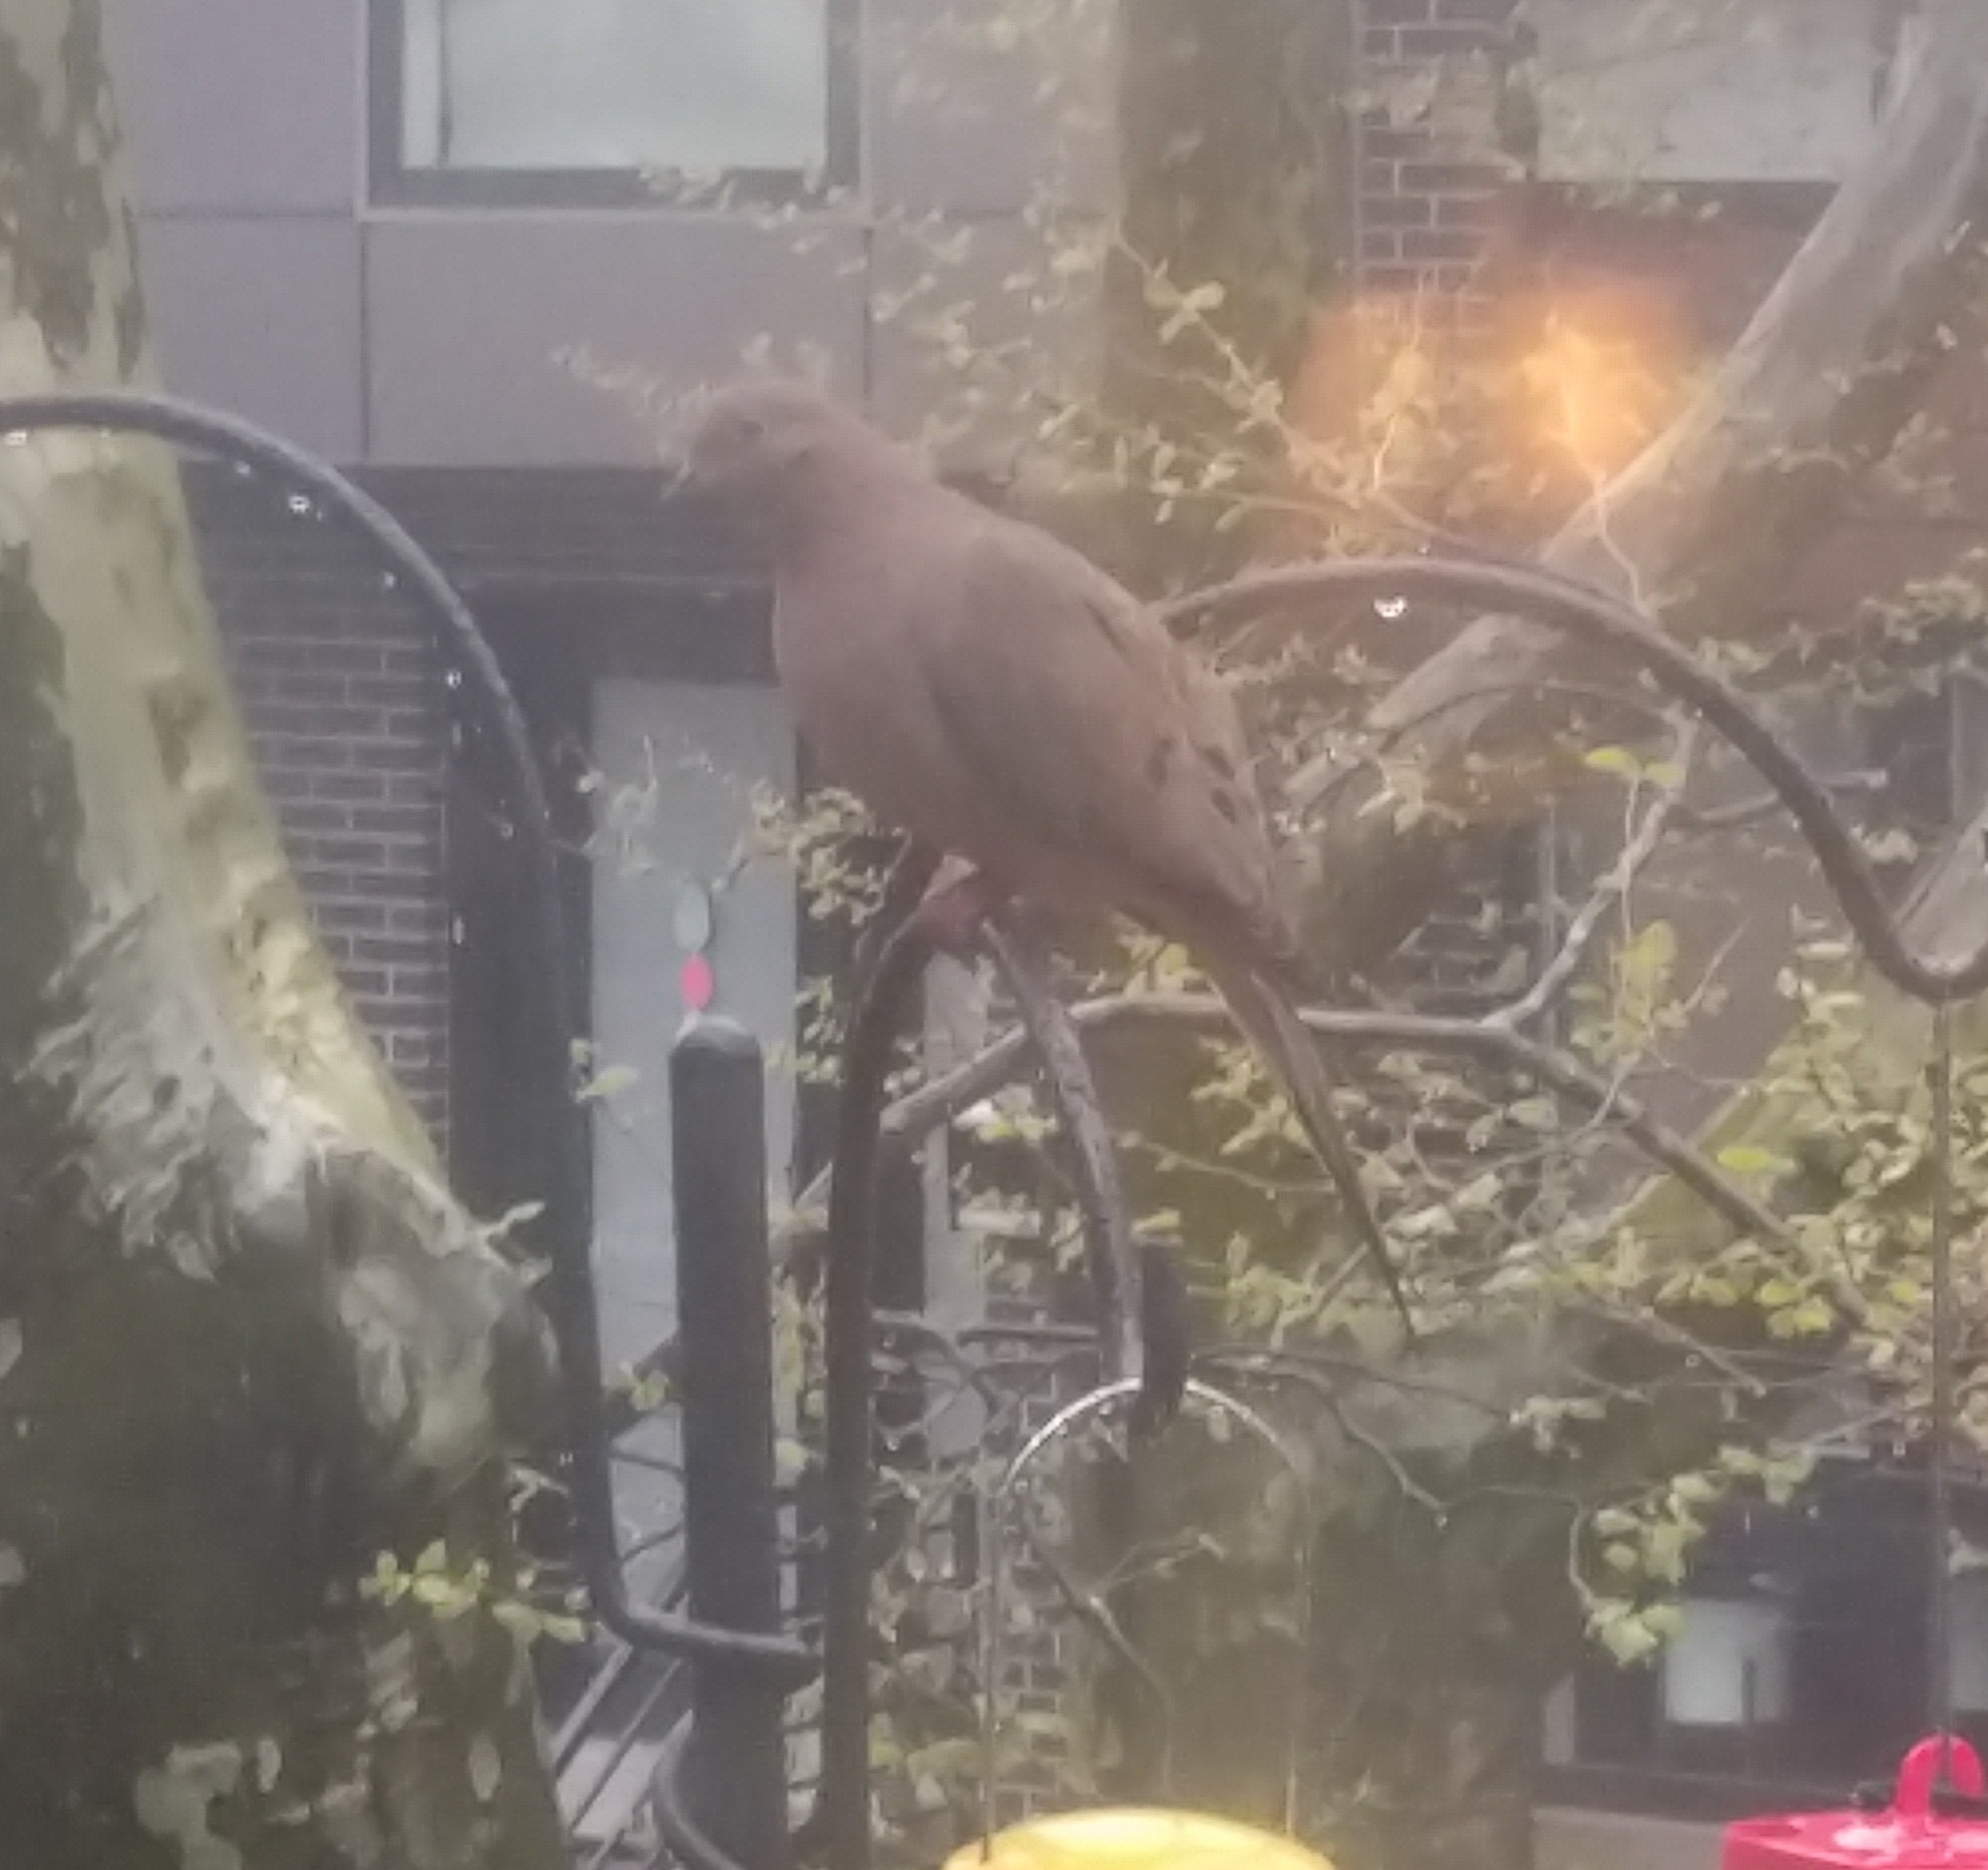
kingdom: Animalia
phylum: Chordata
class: Aves
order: Columbiformes
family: Columbidae
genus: Zenaida
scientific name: Zenaida macroura
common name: Mourning dove
